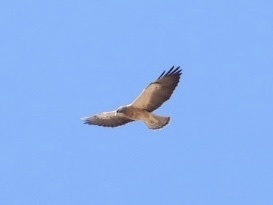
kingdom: Animalia
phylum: Chordata
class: Aves
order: Accipitriformes
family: Accipitridae
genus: Buteo
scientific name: Buteo swainsoni
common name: Swainson's hawk
